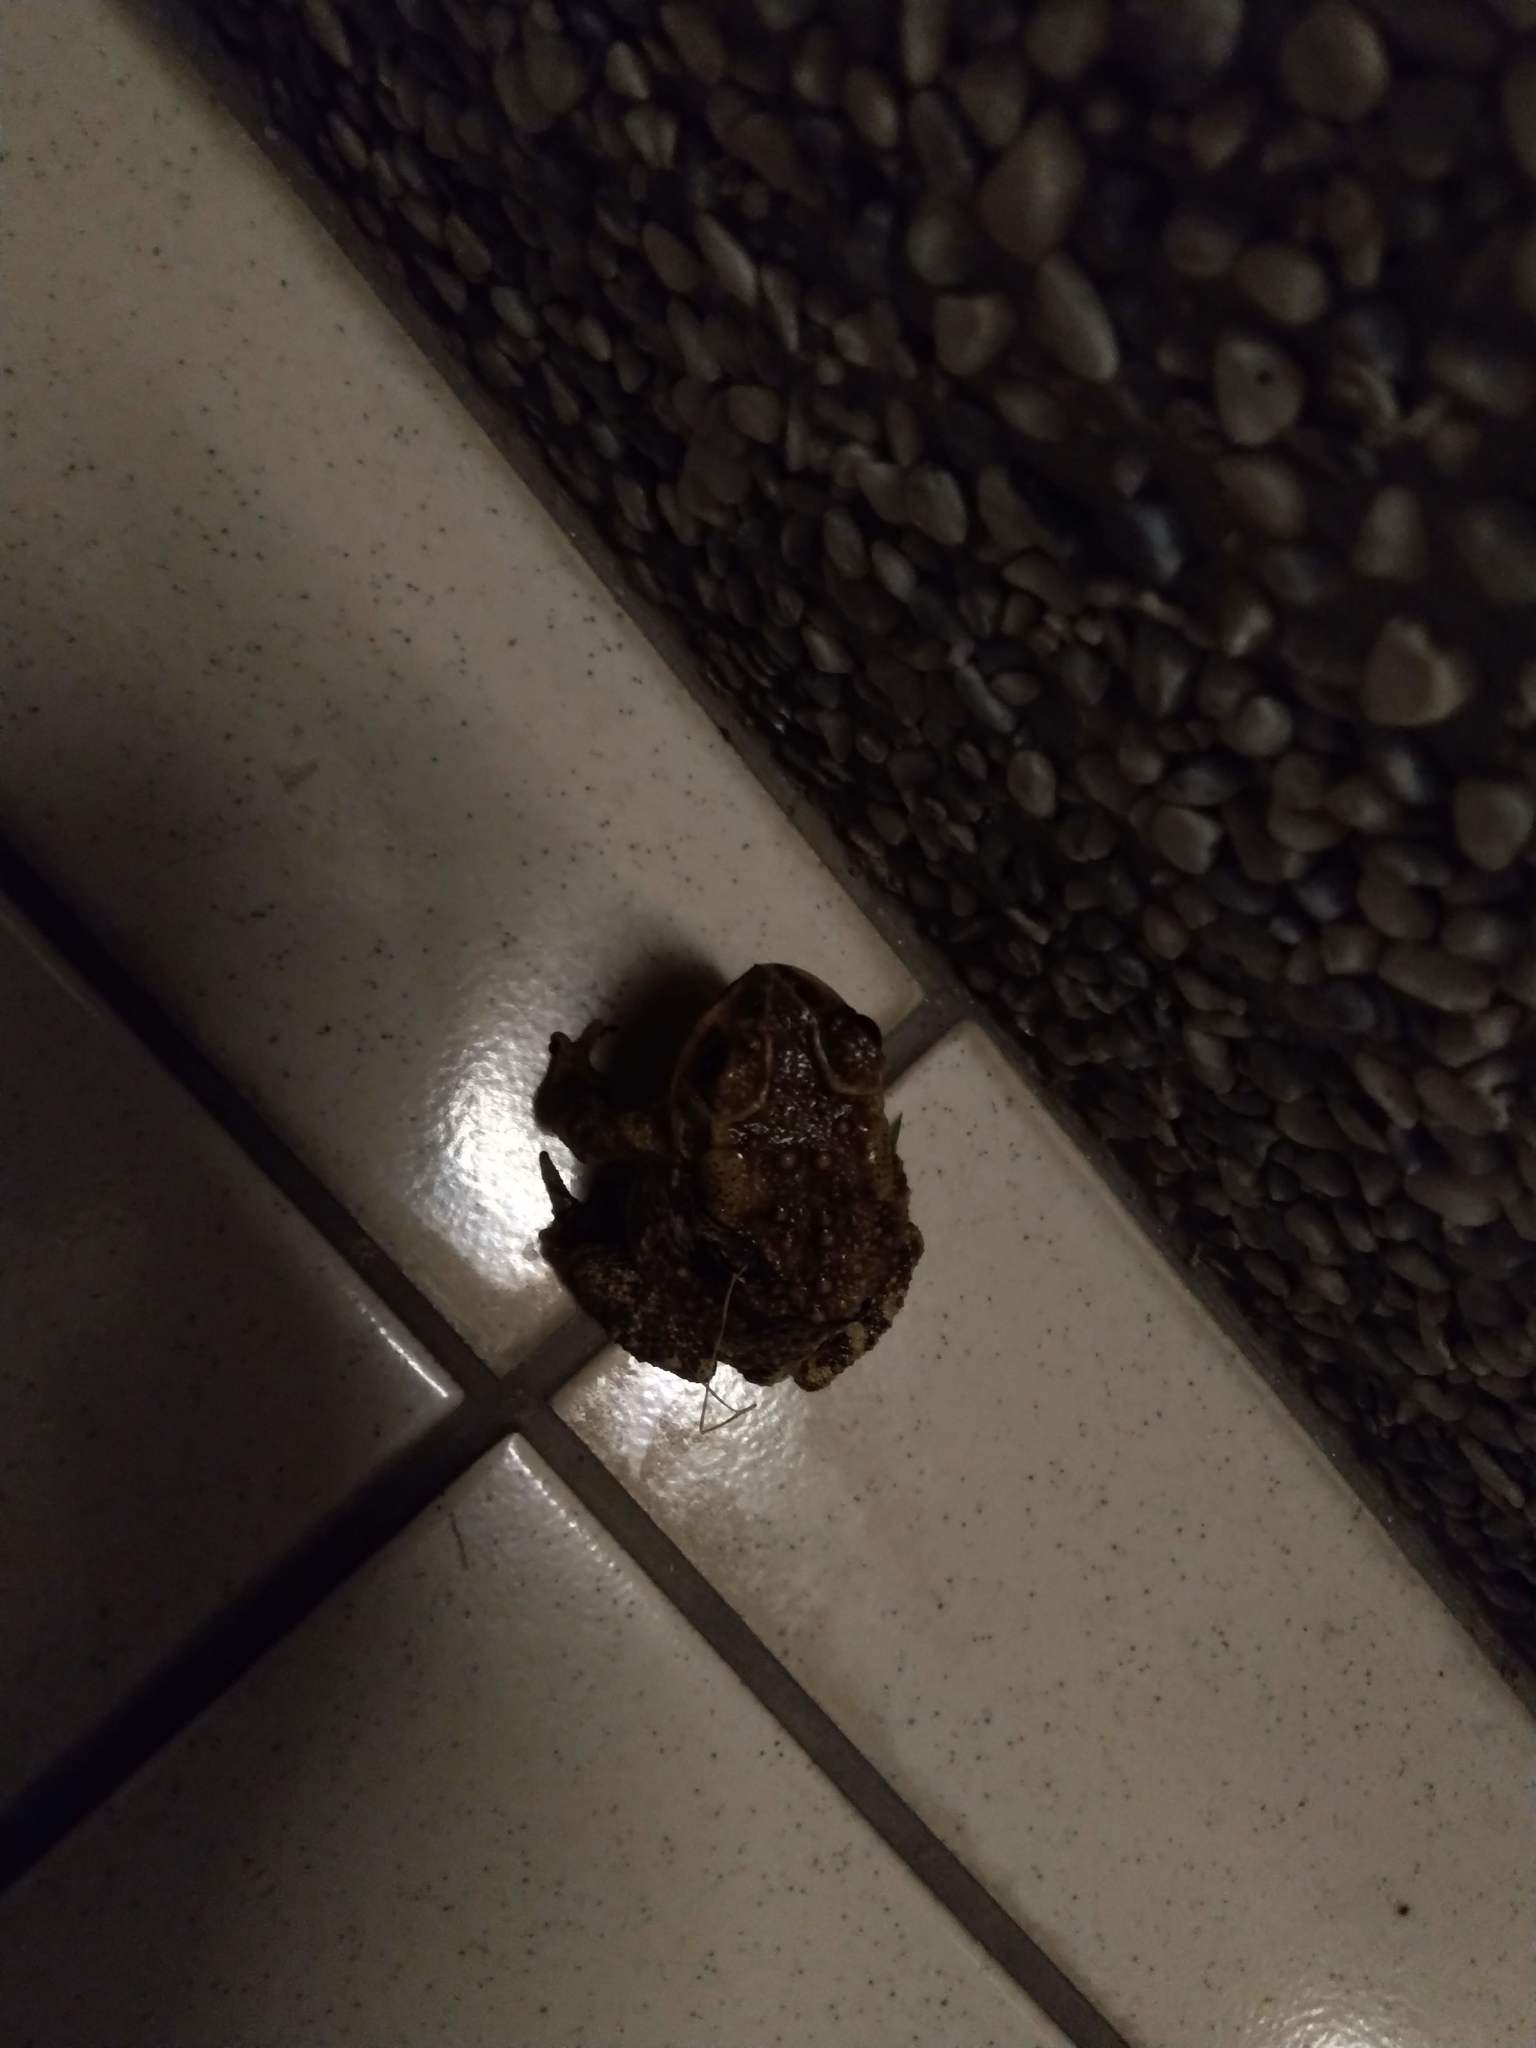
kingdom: Animalia
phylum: Chordata
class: Amphibia
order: Anura
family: Bufonidae
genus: Duttaphrynus
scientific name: Duttaphrynus melanostictus
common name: Common sunda toad
